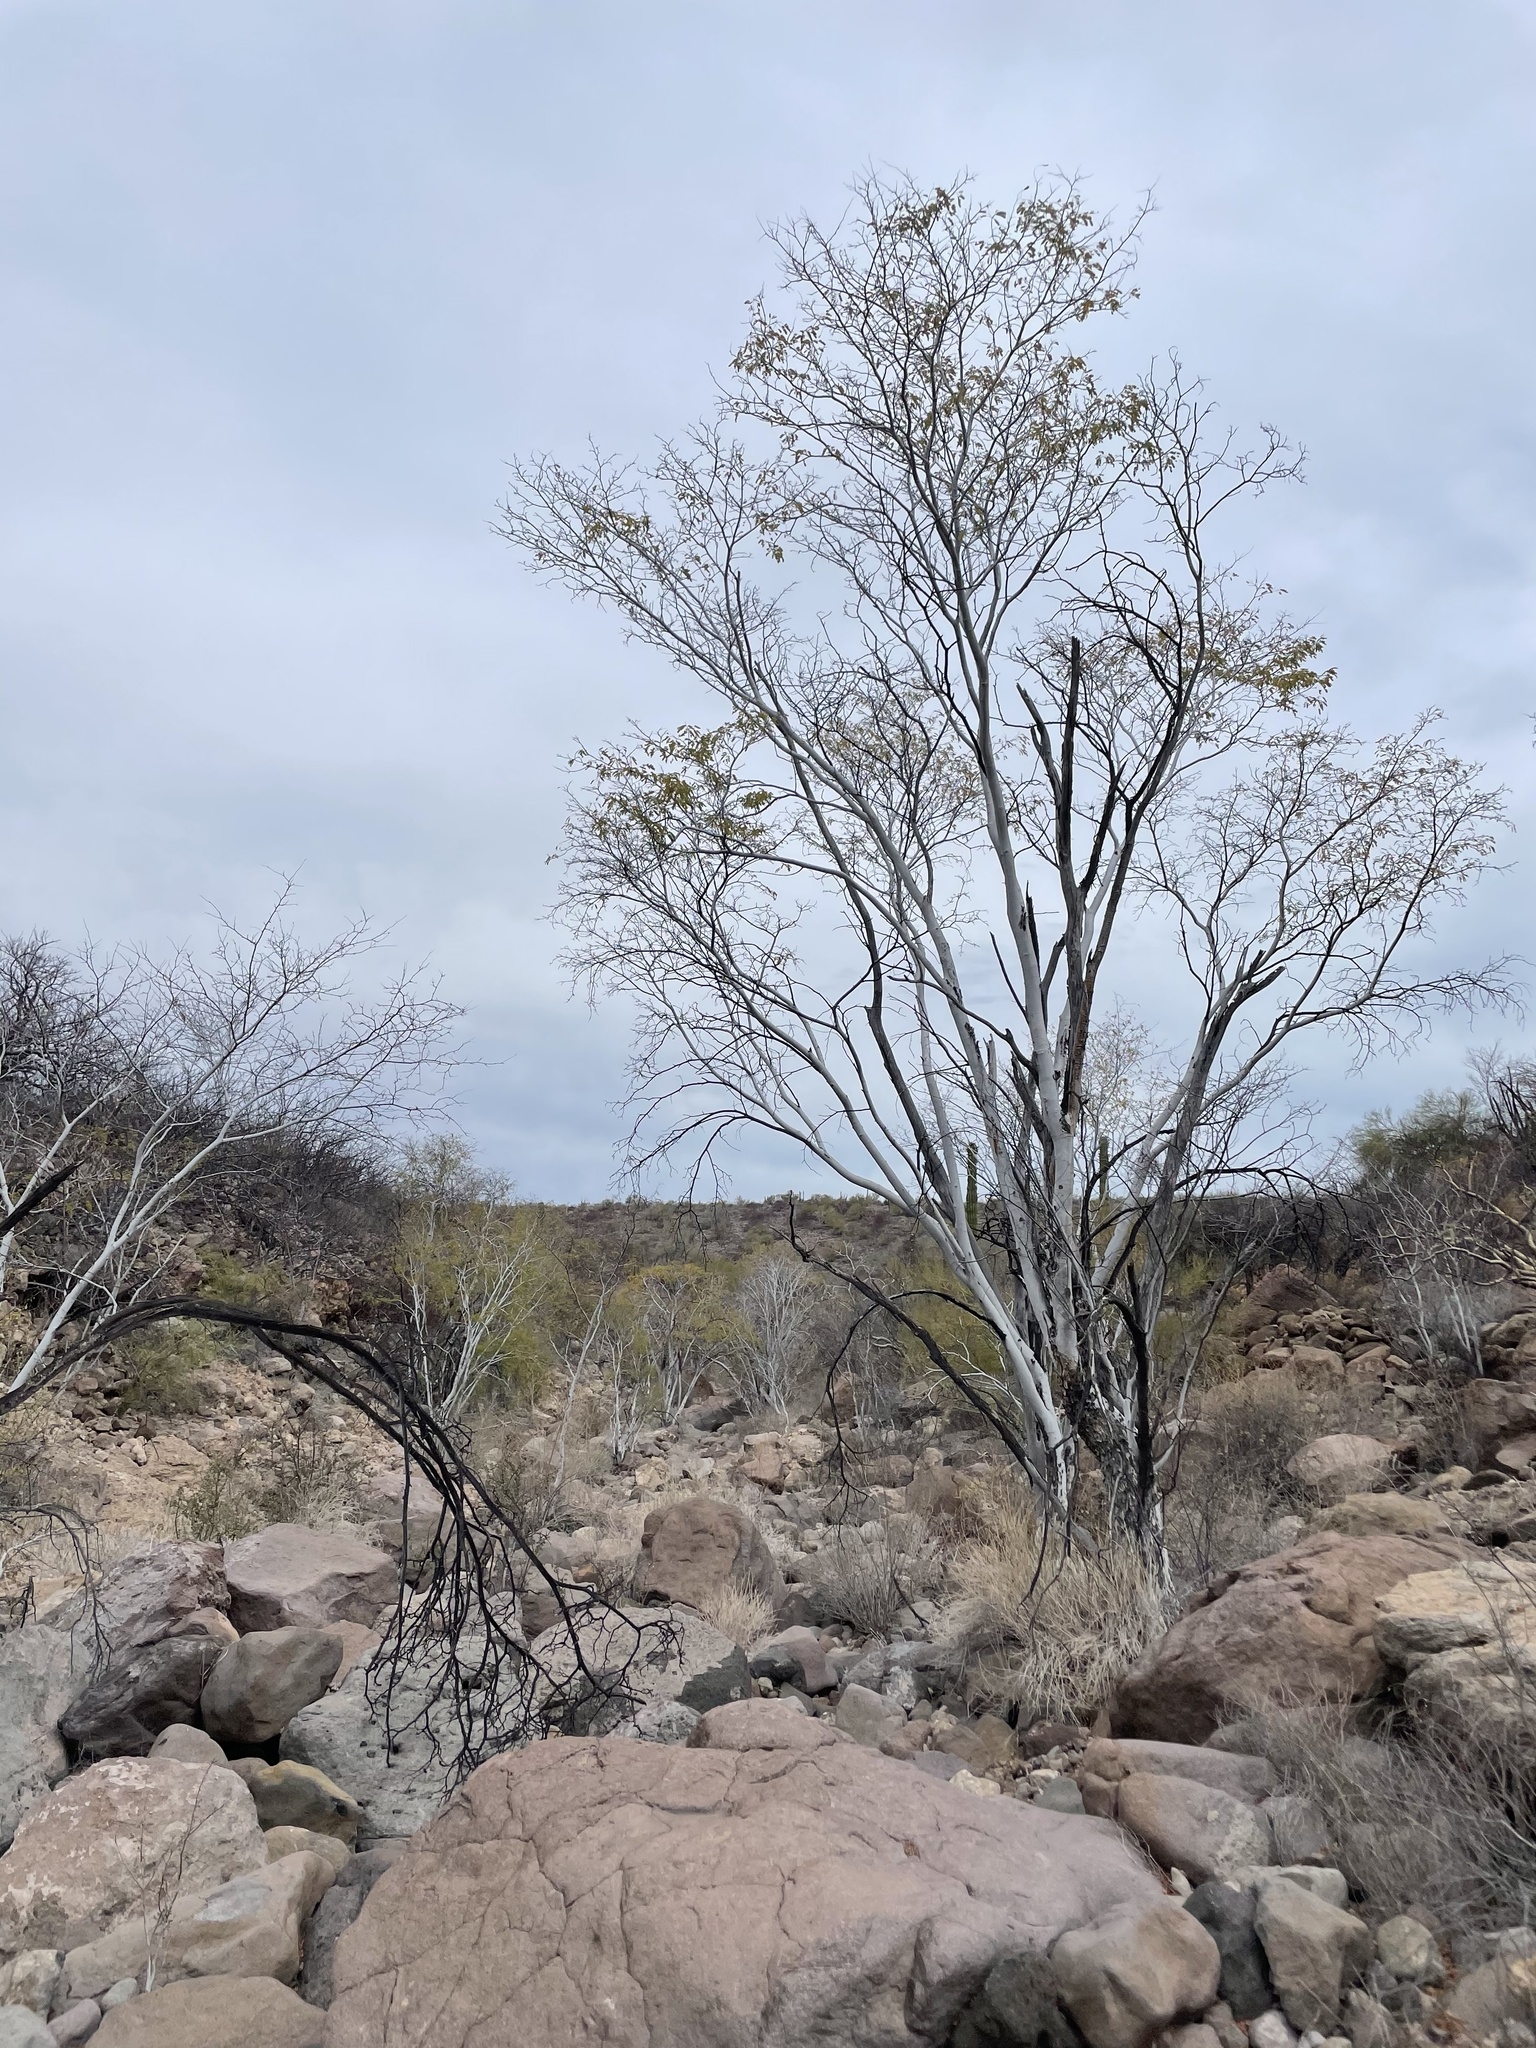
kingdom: Plantae
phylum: Tracheophyta
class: Magnoliopsida
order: Fabales
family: Fabaceae
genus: Lysiloma
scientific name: Lysiloma candidum
